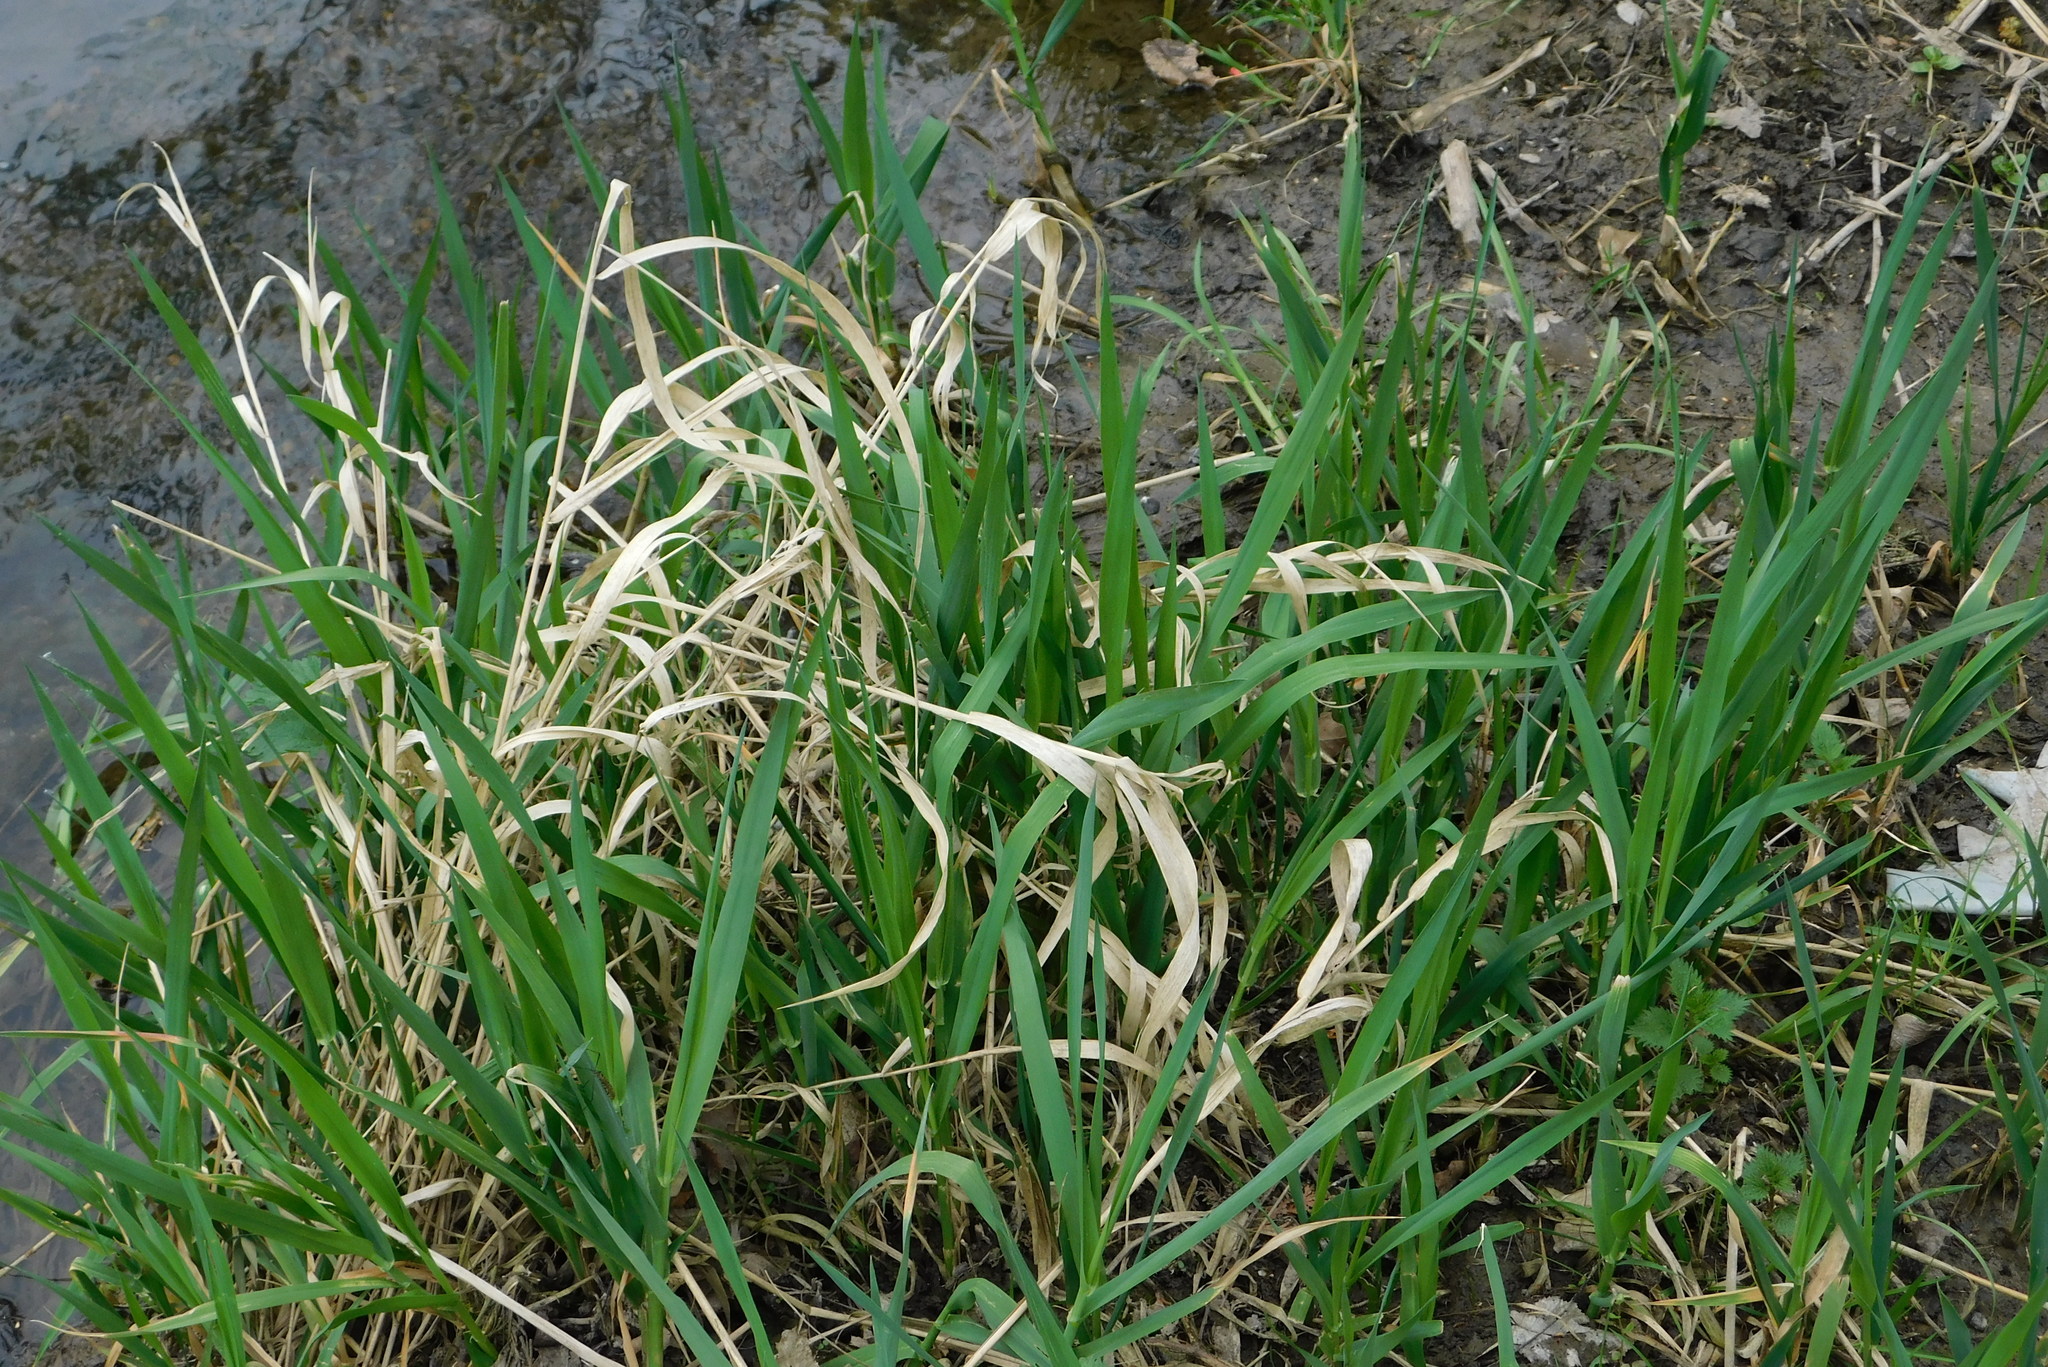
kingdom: Plantae
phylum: Tracheophyta
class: Liliopsida
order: Poales
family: Poaceae
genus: Phalaris
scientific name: Phalaris arundinacea
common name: Reed canary-grass
